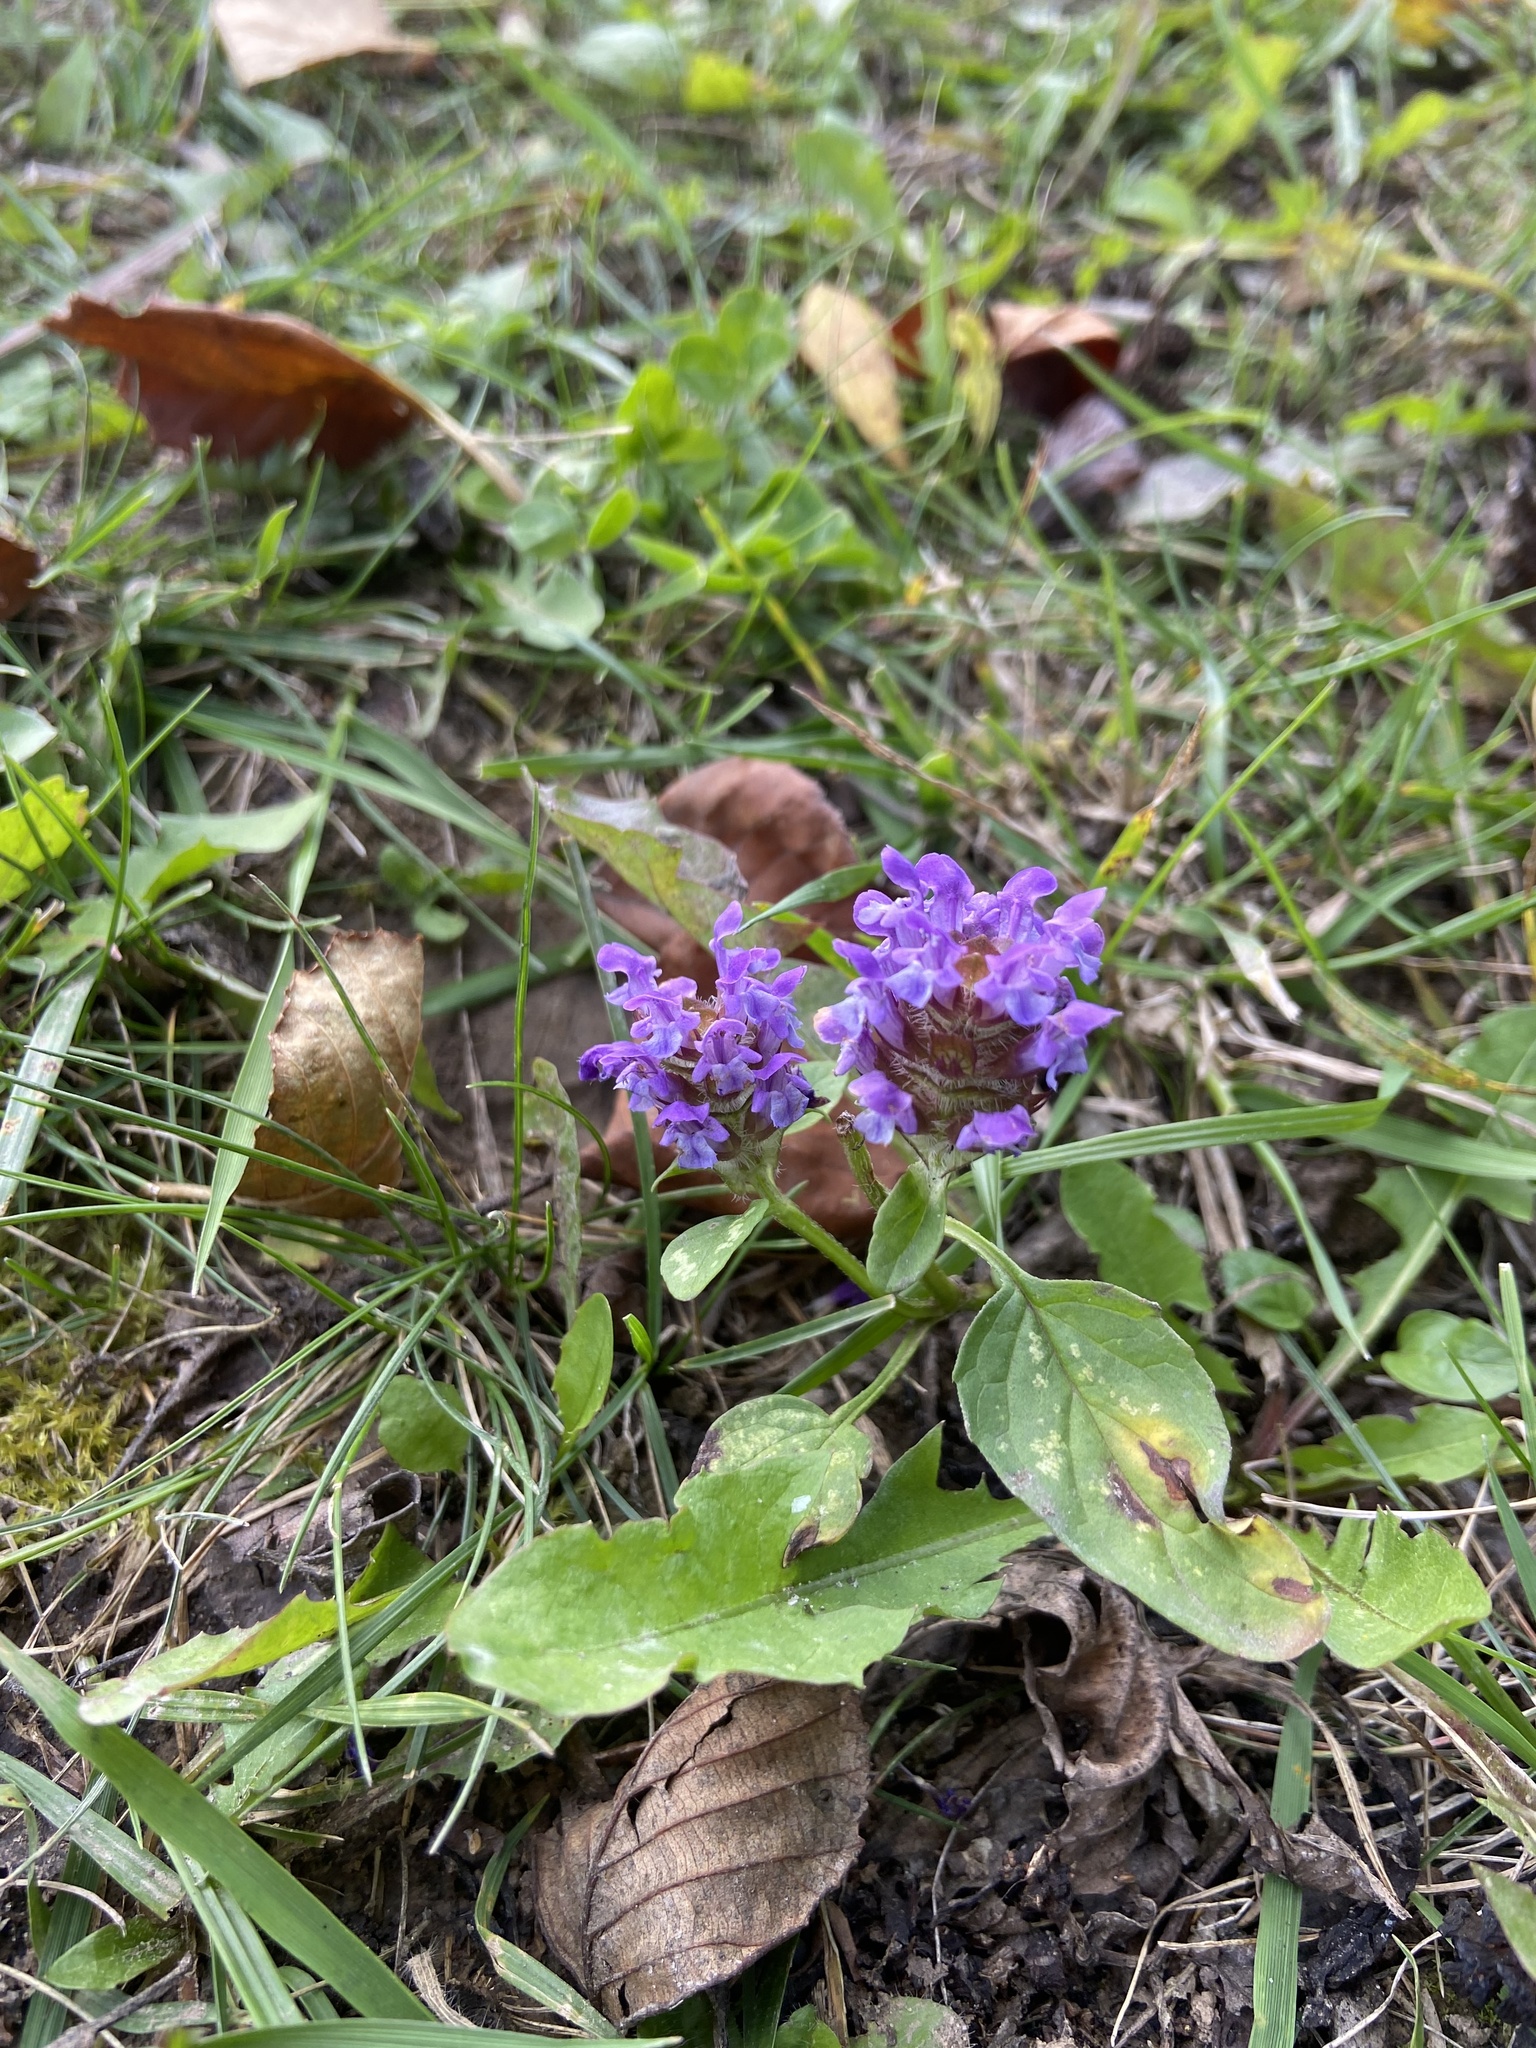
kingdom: Plantae
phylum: Tracheophyta
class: Magnoliopsida
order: Lamiales
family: Lamiaceae
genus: Prunella
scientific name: Prunella vulgaris
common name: Heal-all
